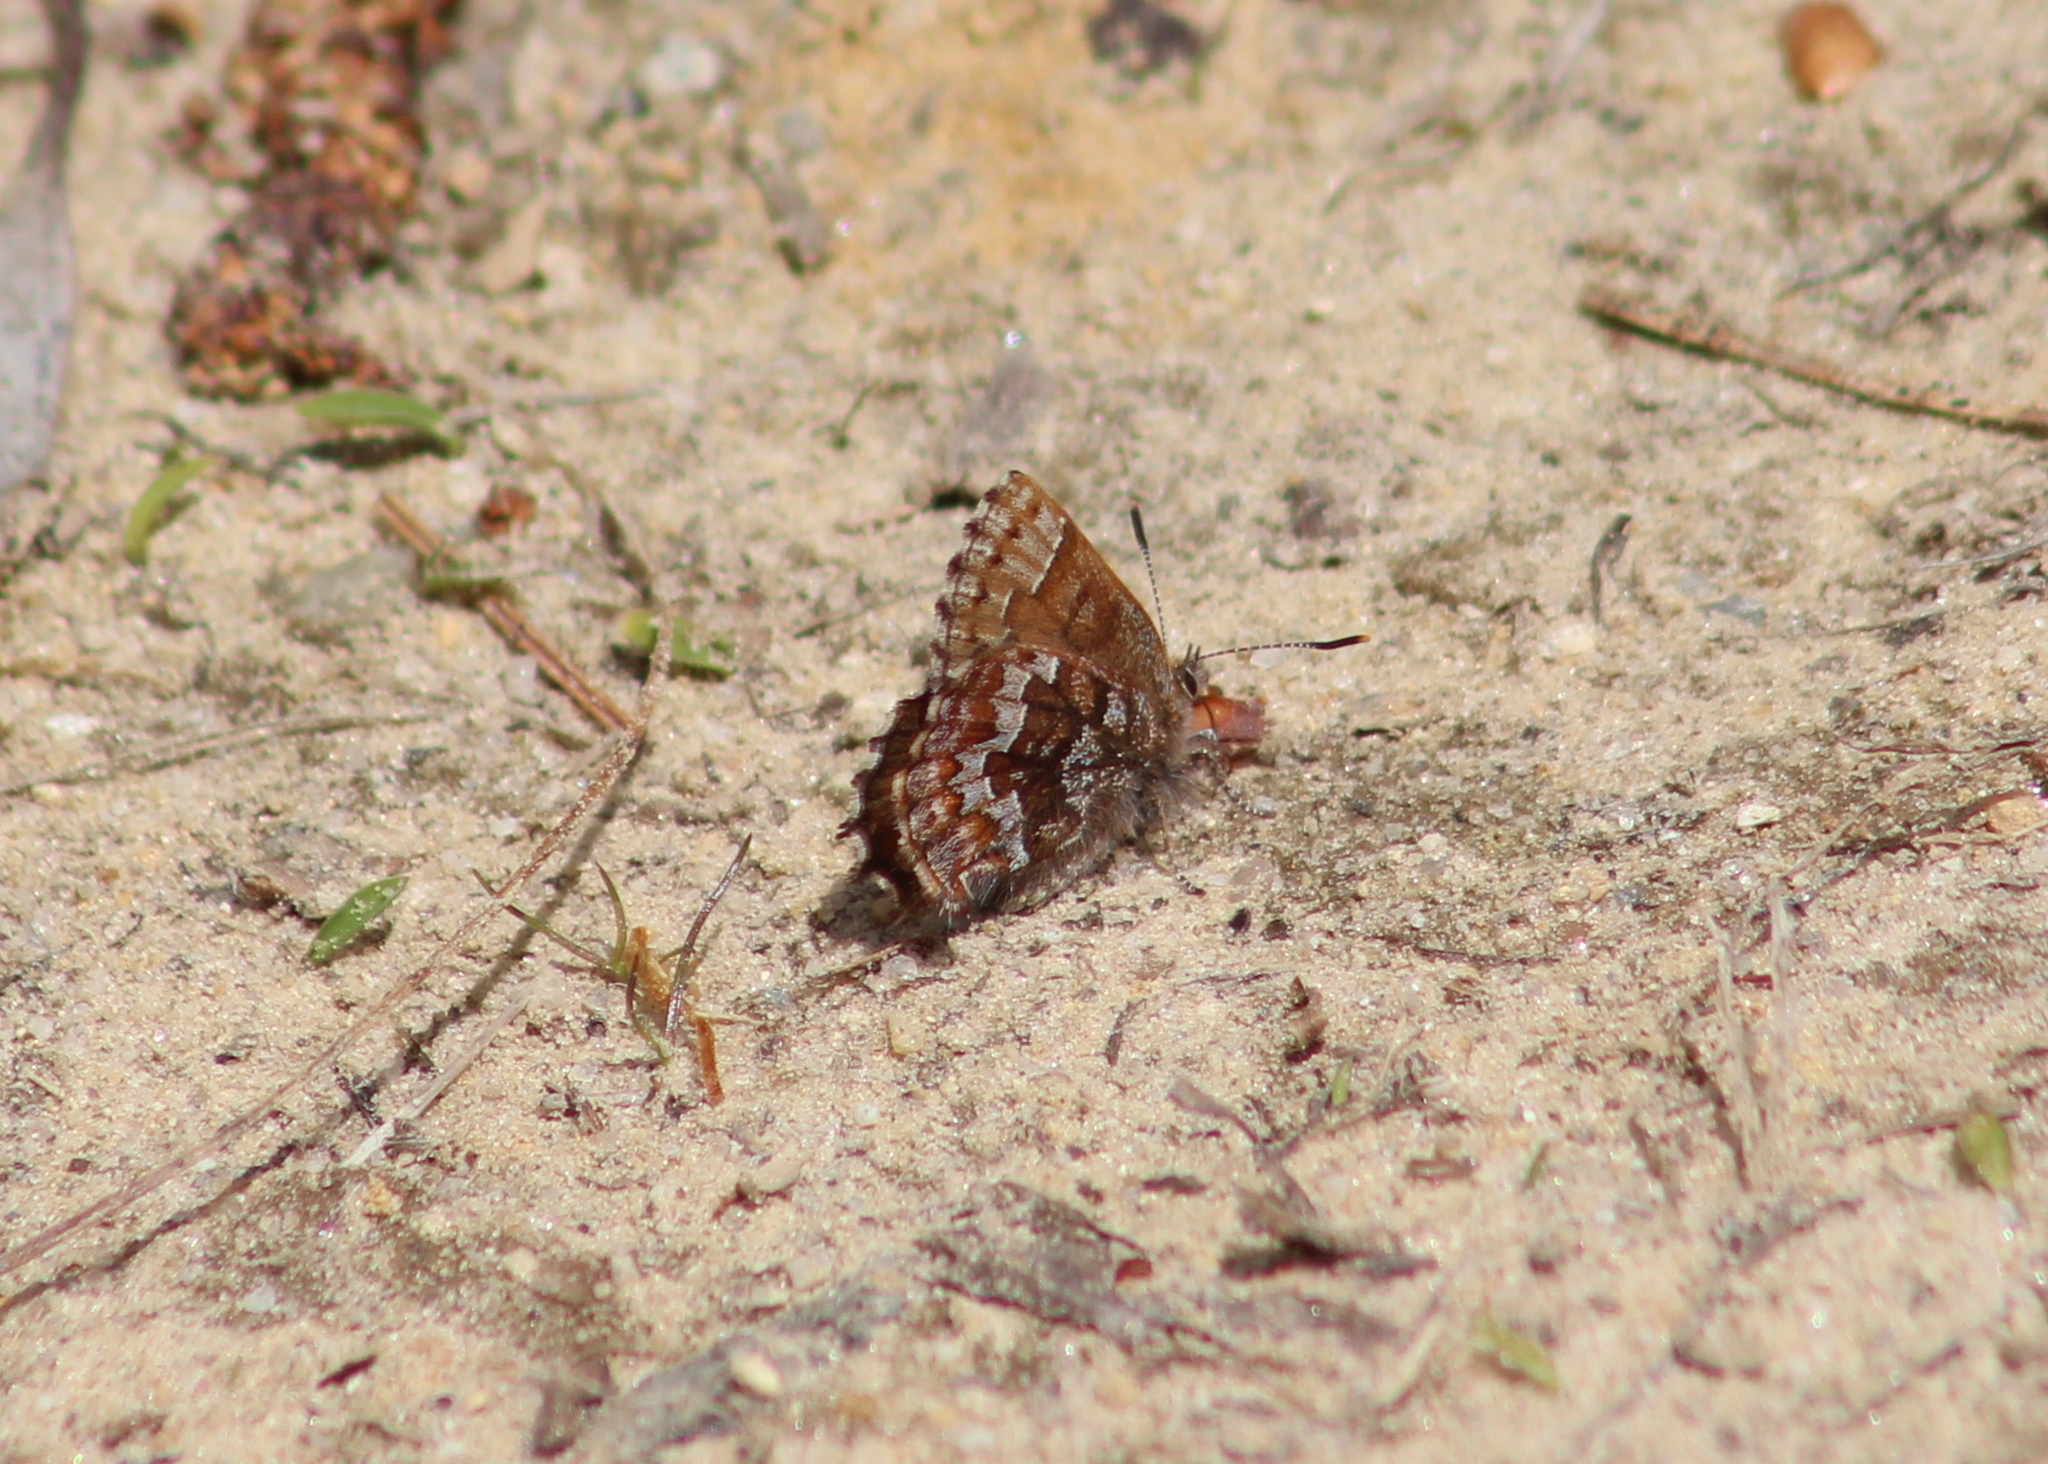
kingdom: Animalia
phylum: Arthropoda
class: Insecta
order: Lepidoptera
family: Lycaenidae
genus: Incisalia
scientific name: Incisalia niphon
